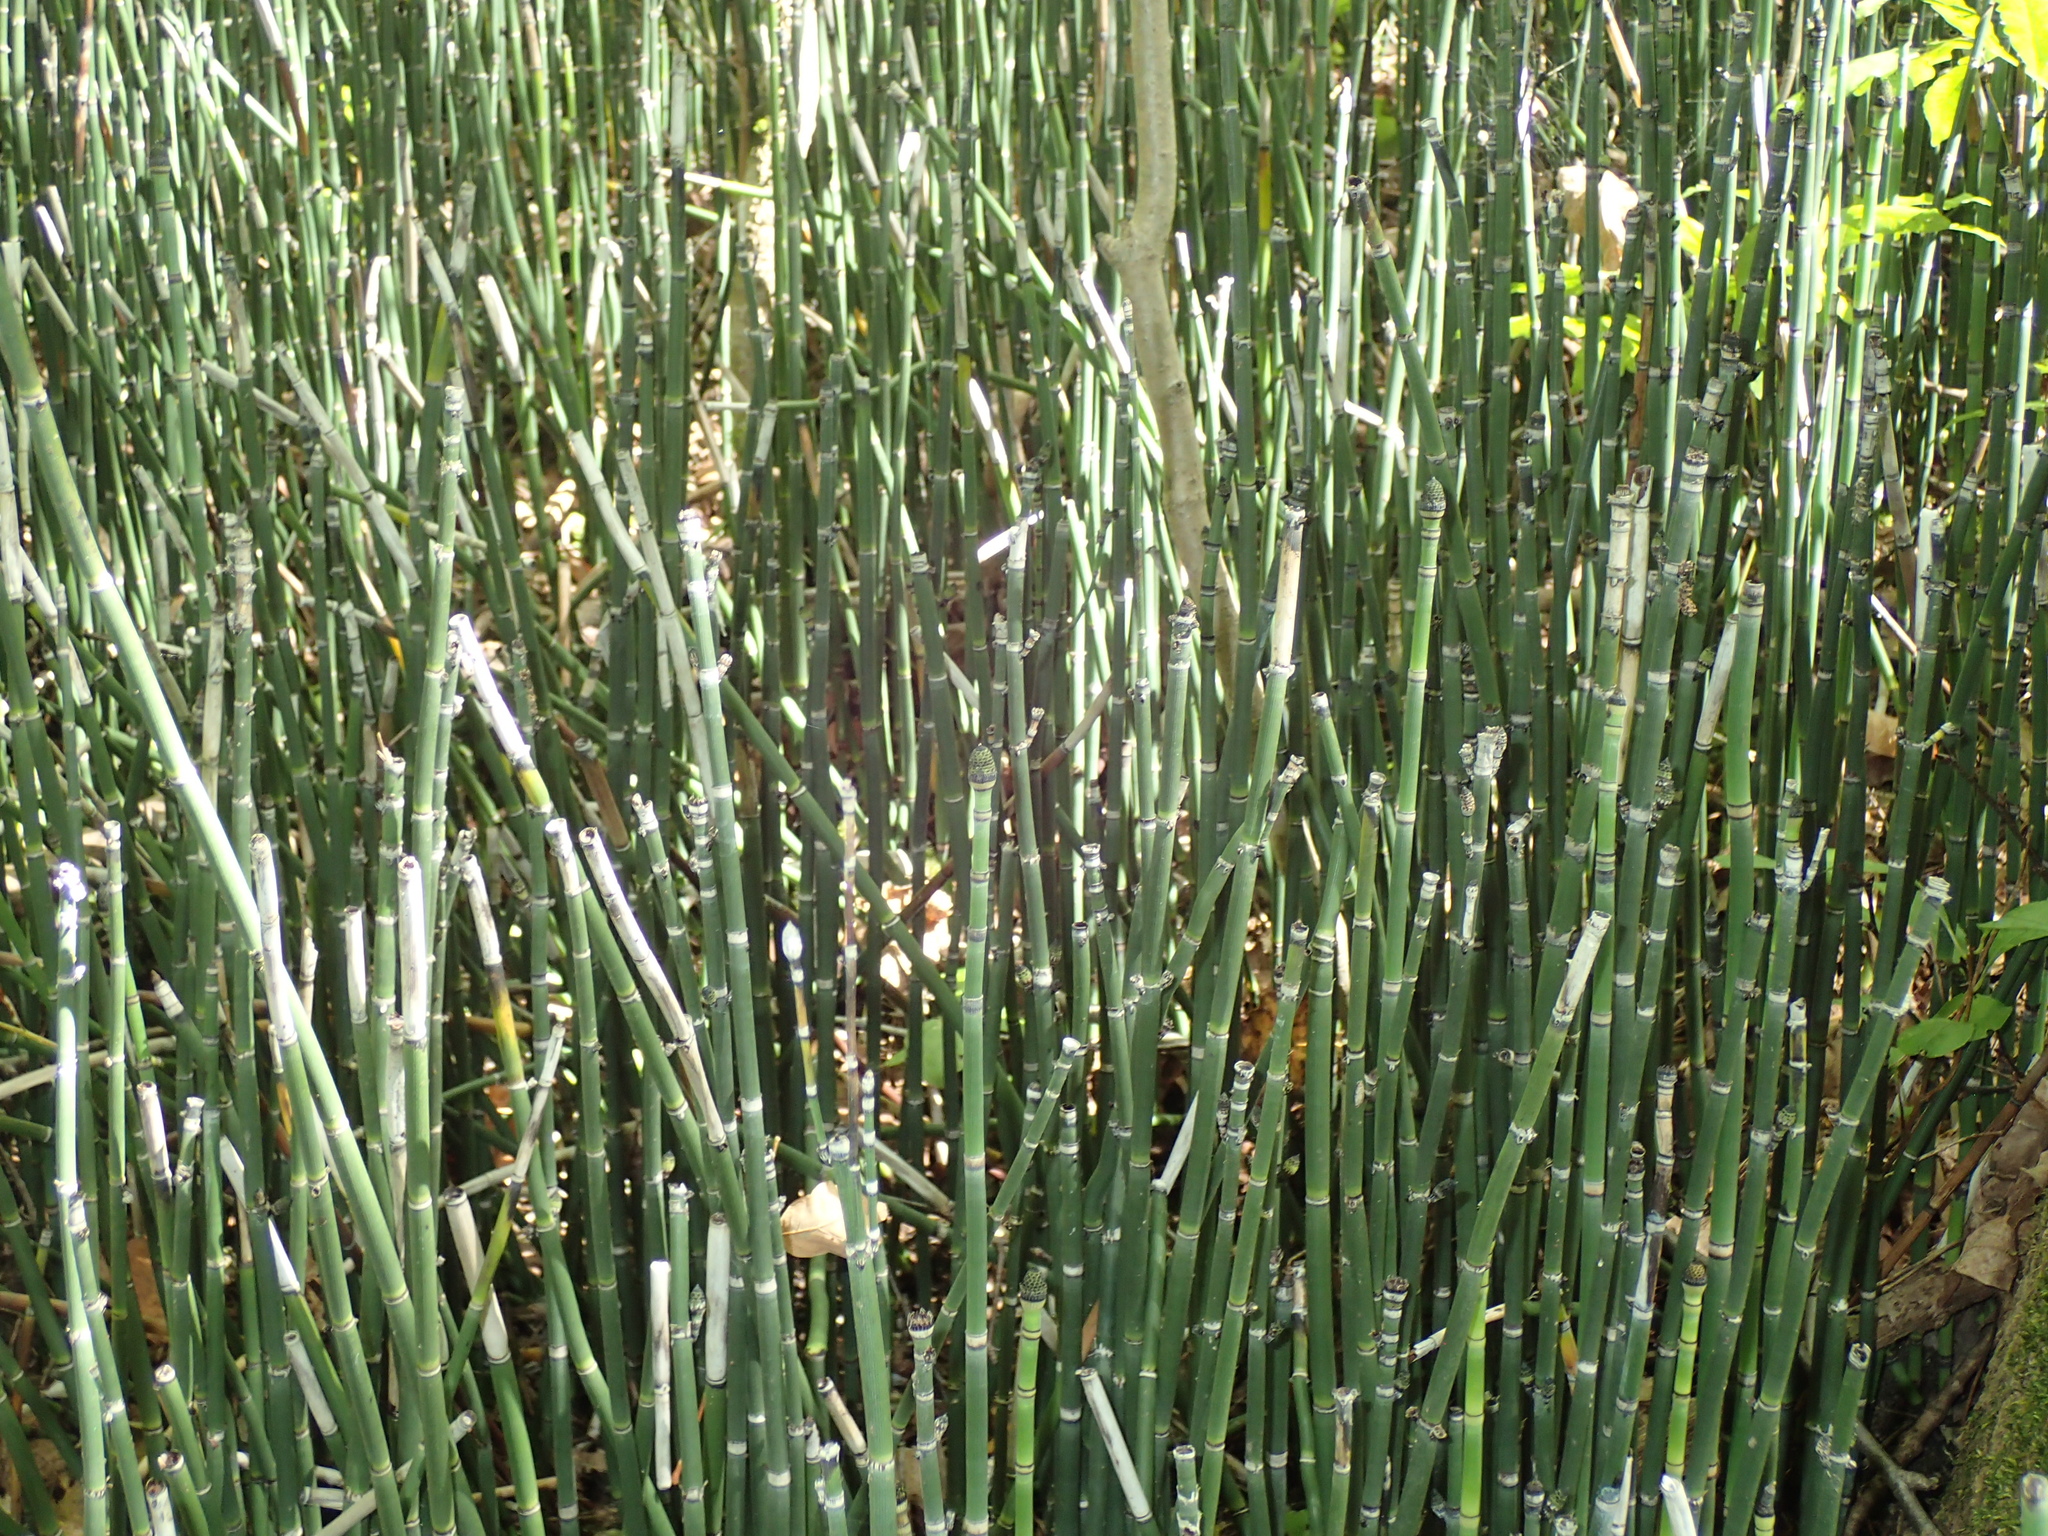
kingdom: Plantae
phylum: Tracheophyta
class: Polypodiopsida
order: Equisetales
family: Equisetaceae
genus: Equisetum
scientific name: Equisetum hyemale
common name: Rough horsetail
